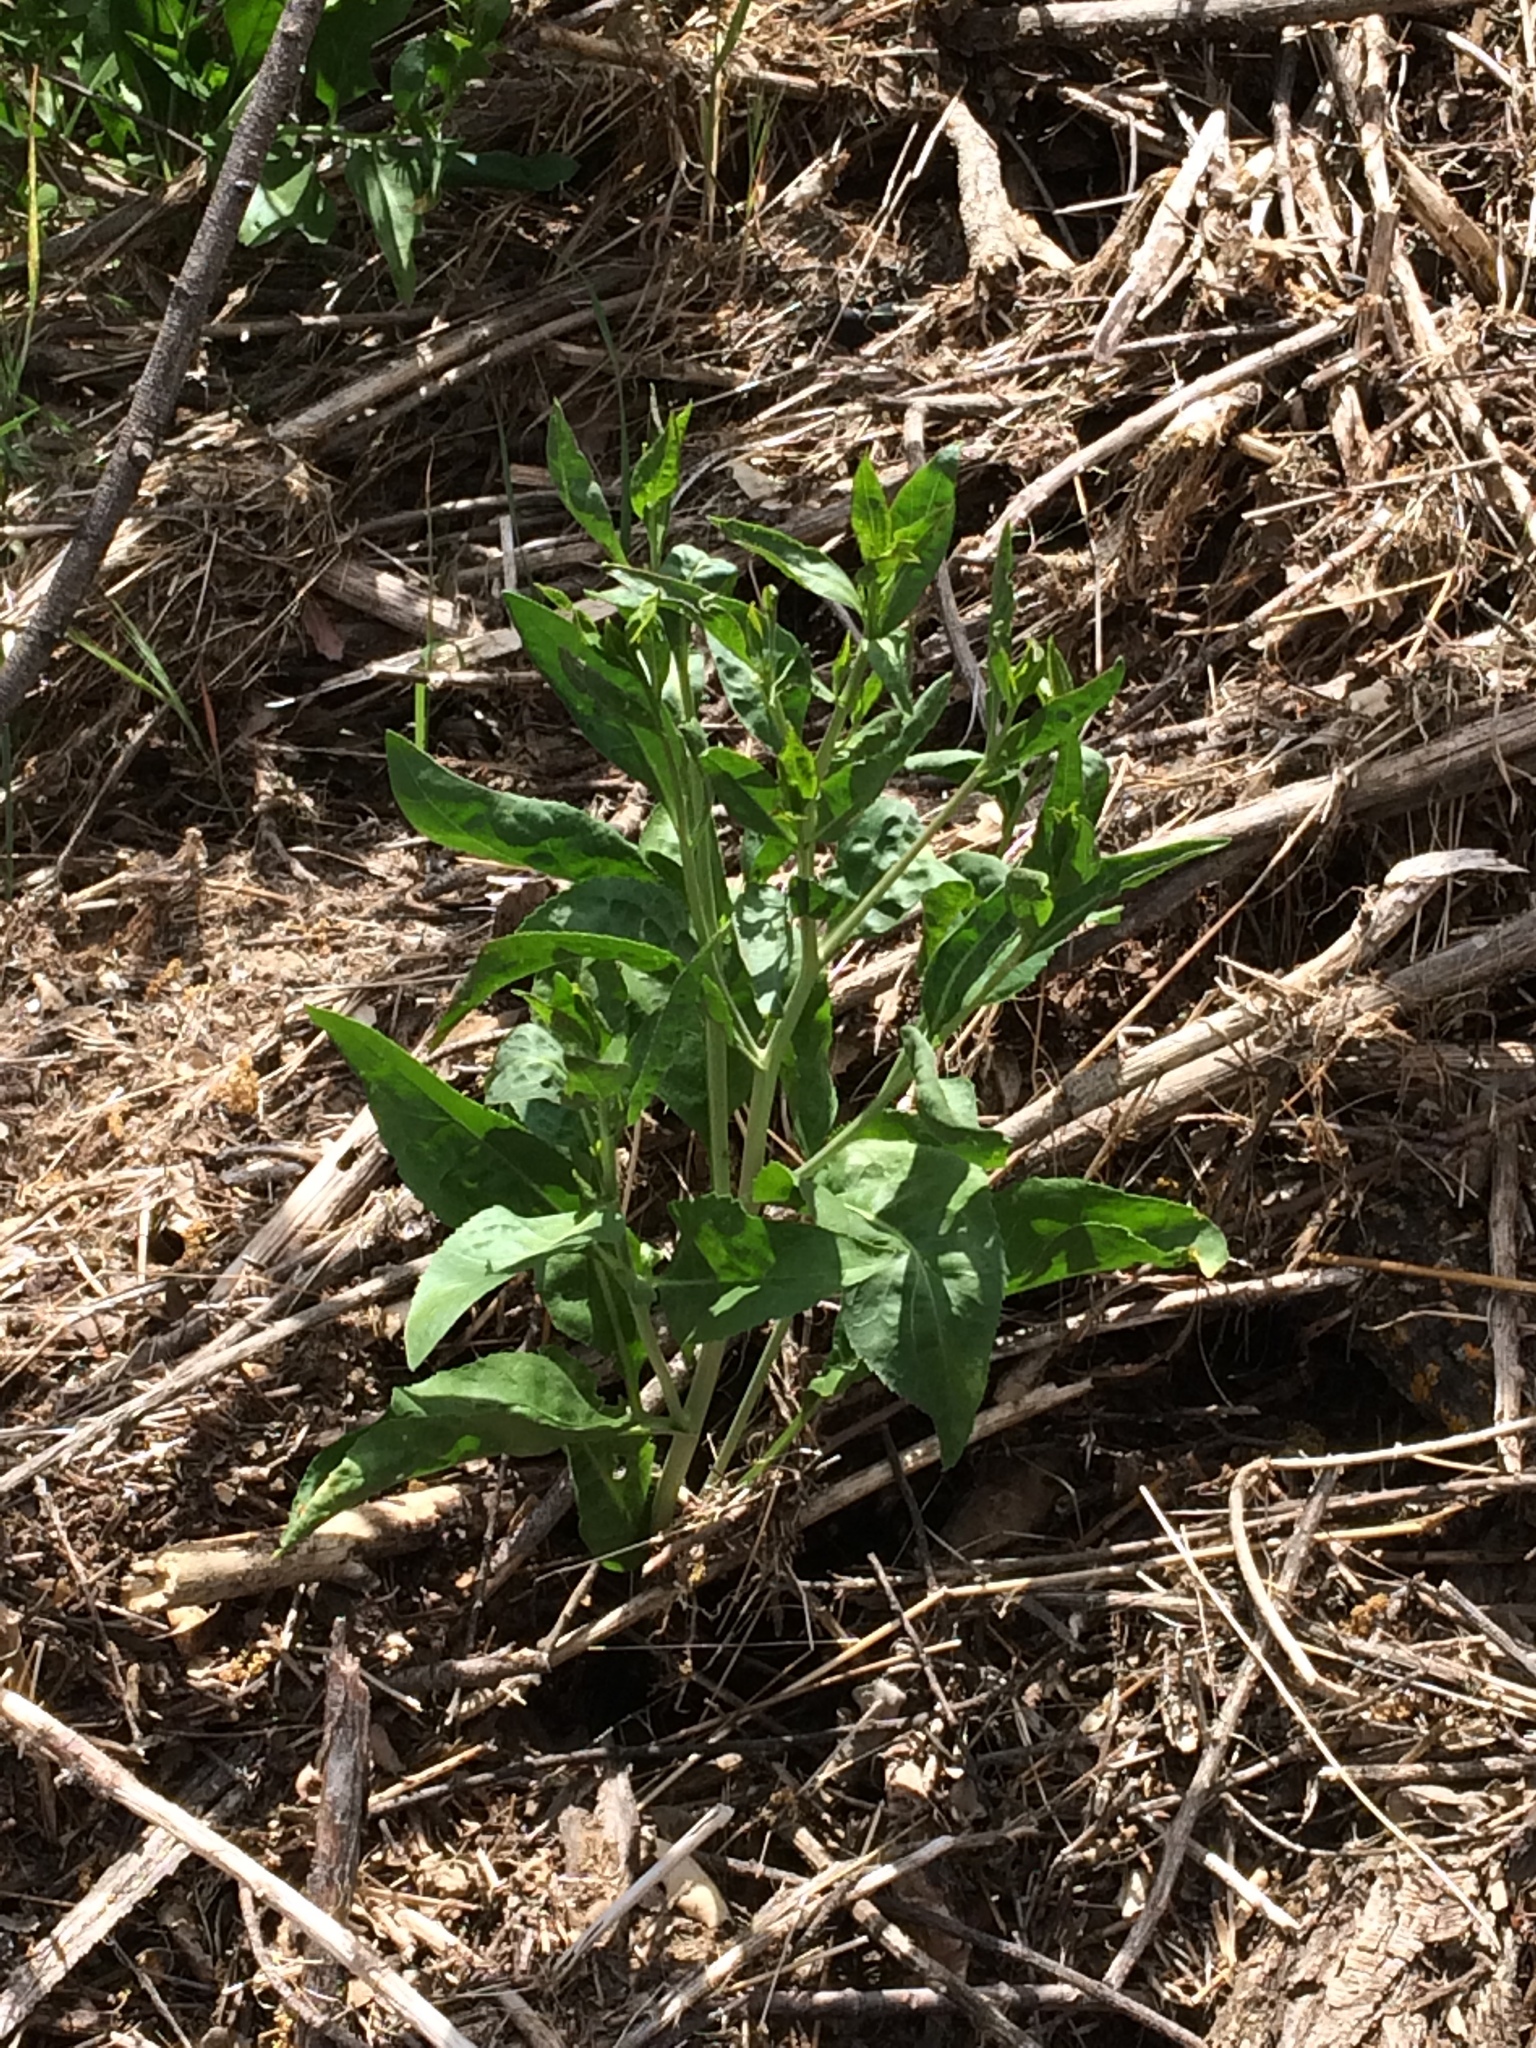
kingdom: Plantae
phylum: Tracheophyta
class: Magnoliopsida
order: Brassicales
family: Brassicaceae
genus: Lepidium
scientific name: Lepidium latifolium
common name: Dittander
